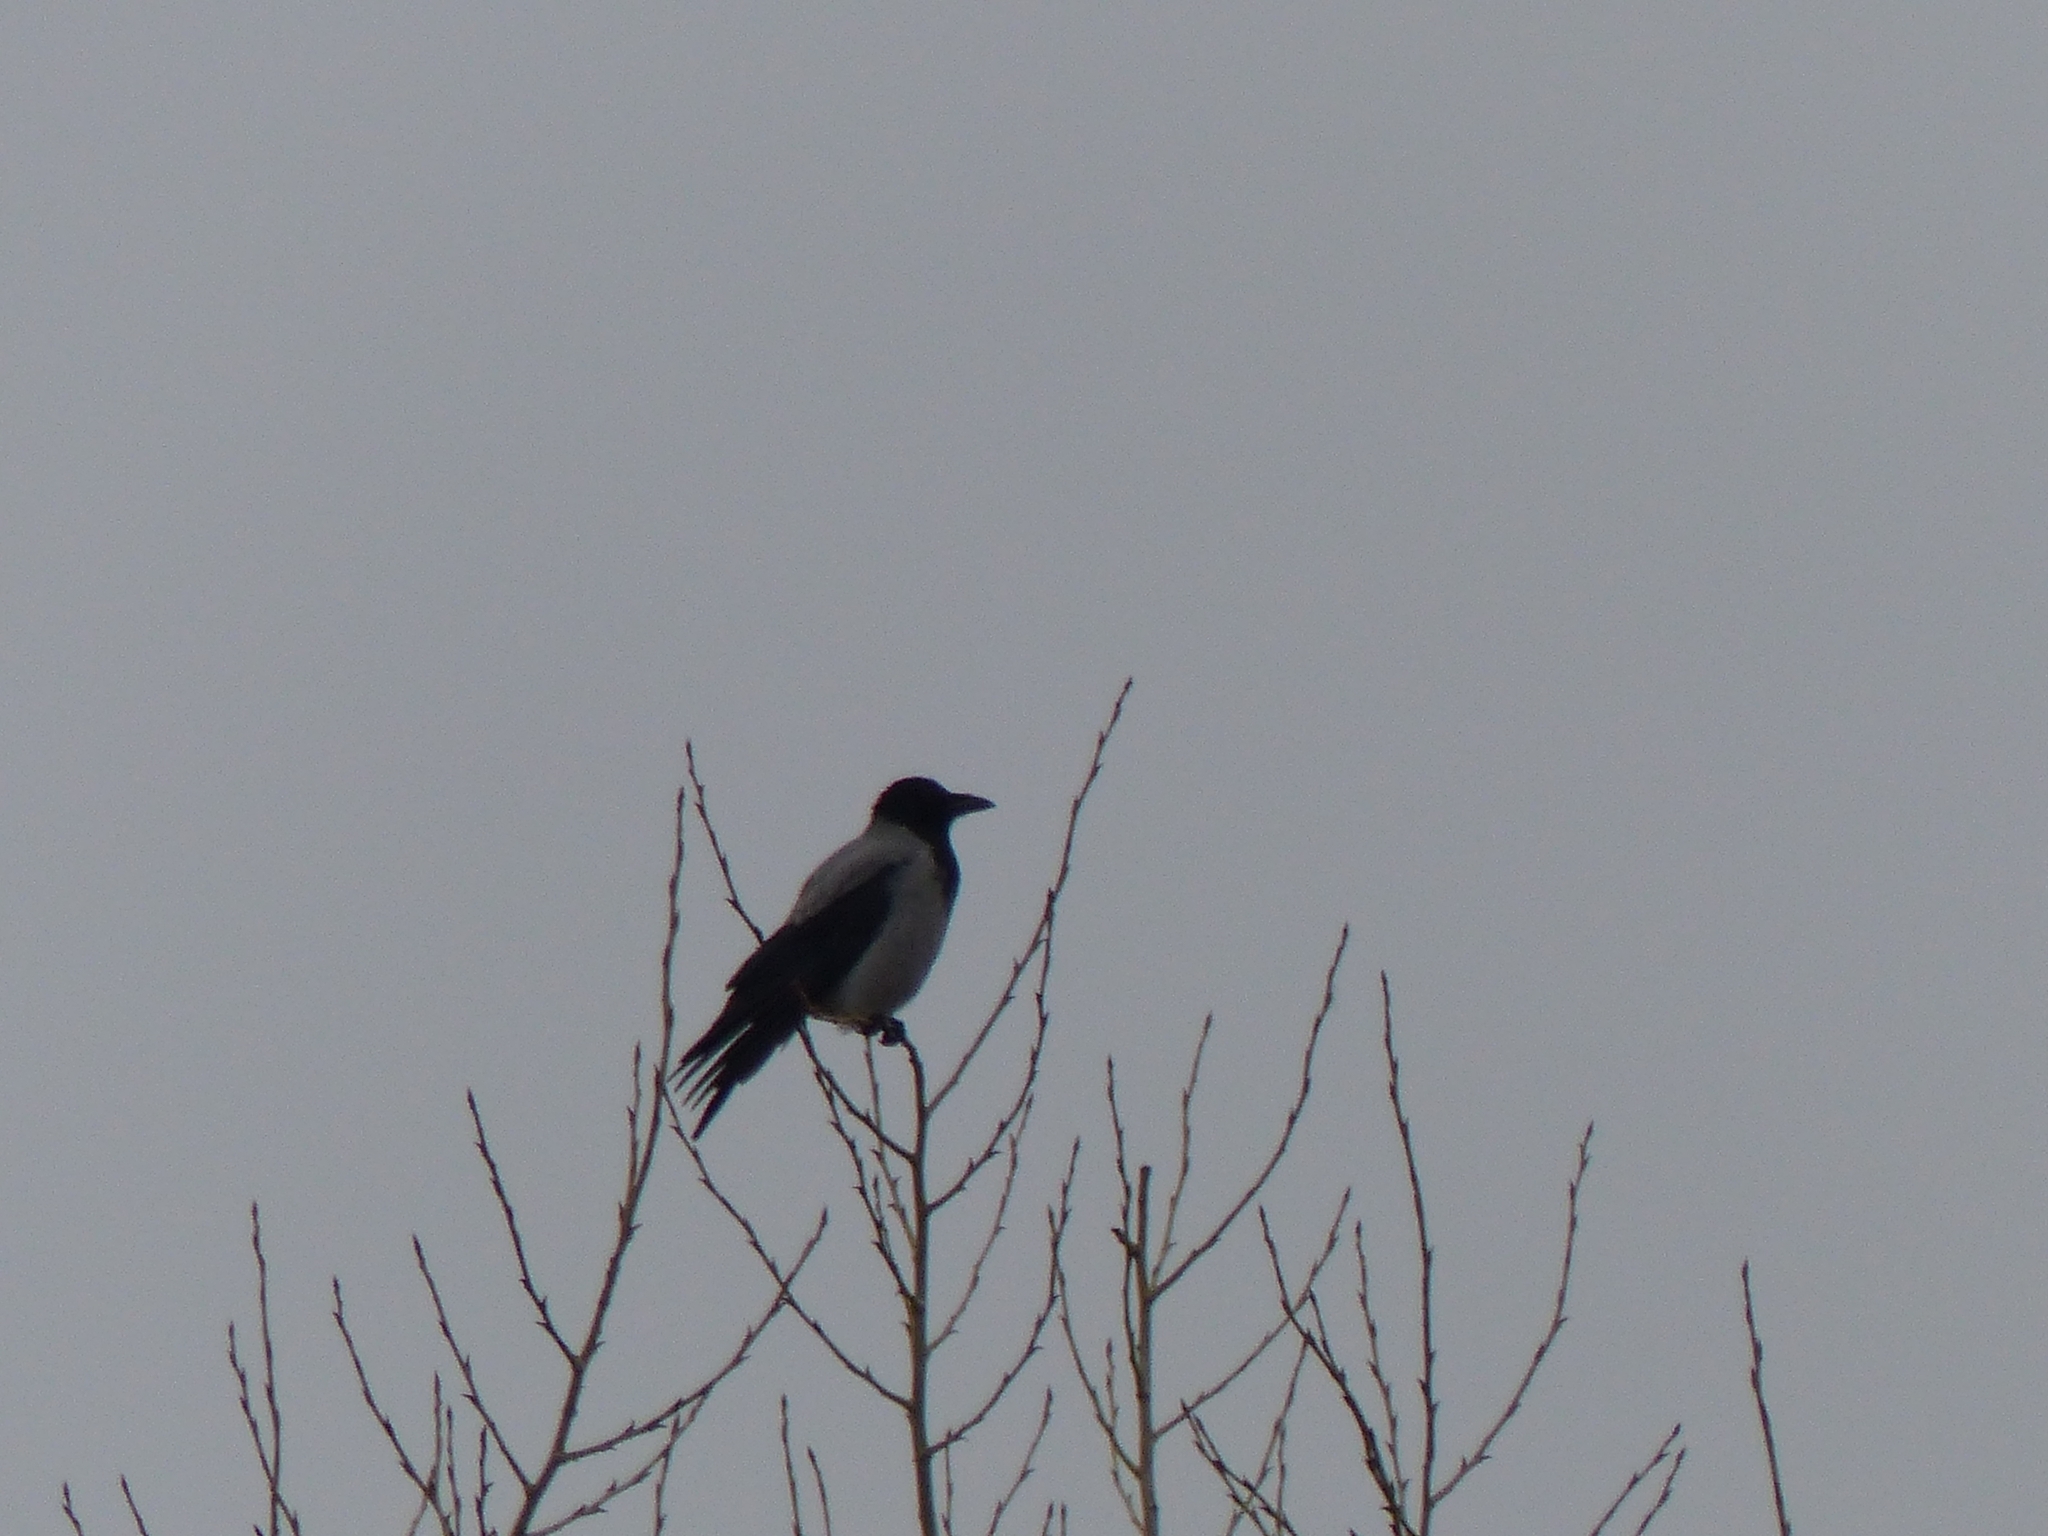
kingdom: Animalia
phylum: Chordata
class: Aves
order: Passeriformes
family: Corvidae
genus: Corvus
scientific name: Corvus cornix
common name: Hooded crow
